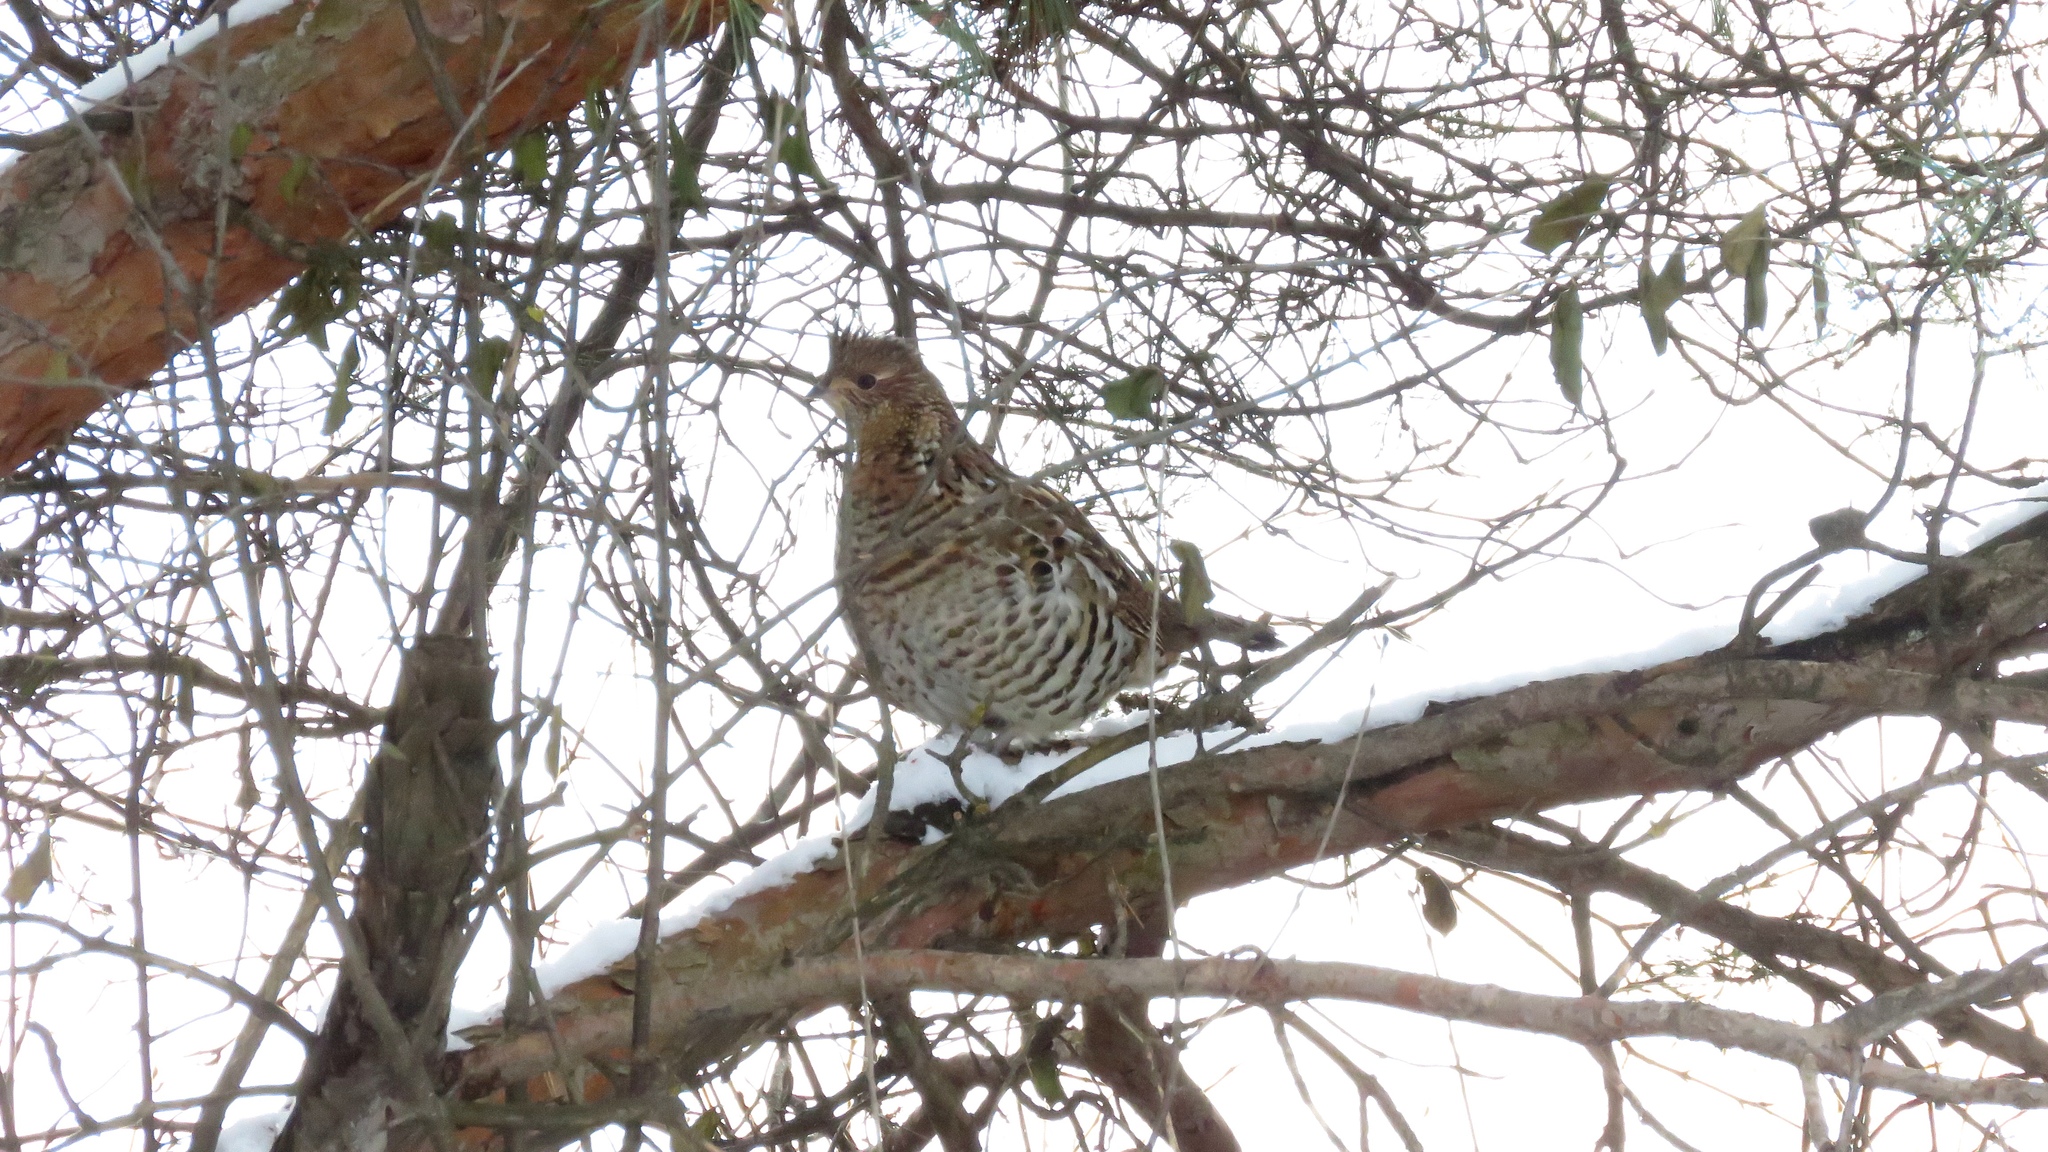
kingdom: Animalia
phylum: Chordata
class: Aves
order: Galliformes
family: Phasianidae
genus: Bonasa
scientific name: Bonasa umbellus
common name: Ruffed grouse
